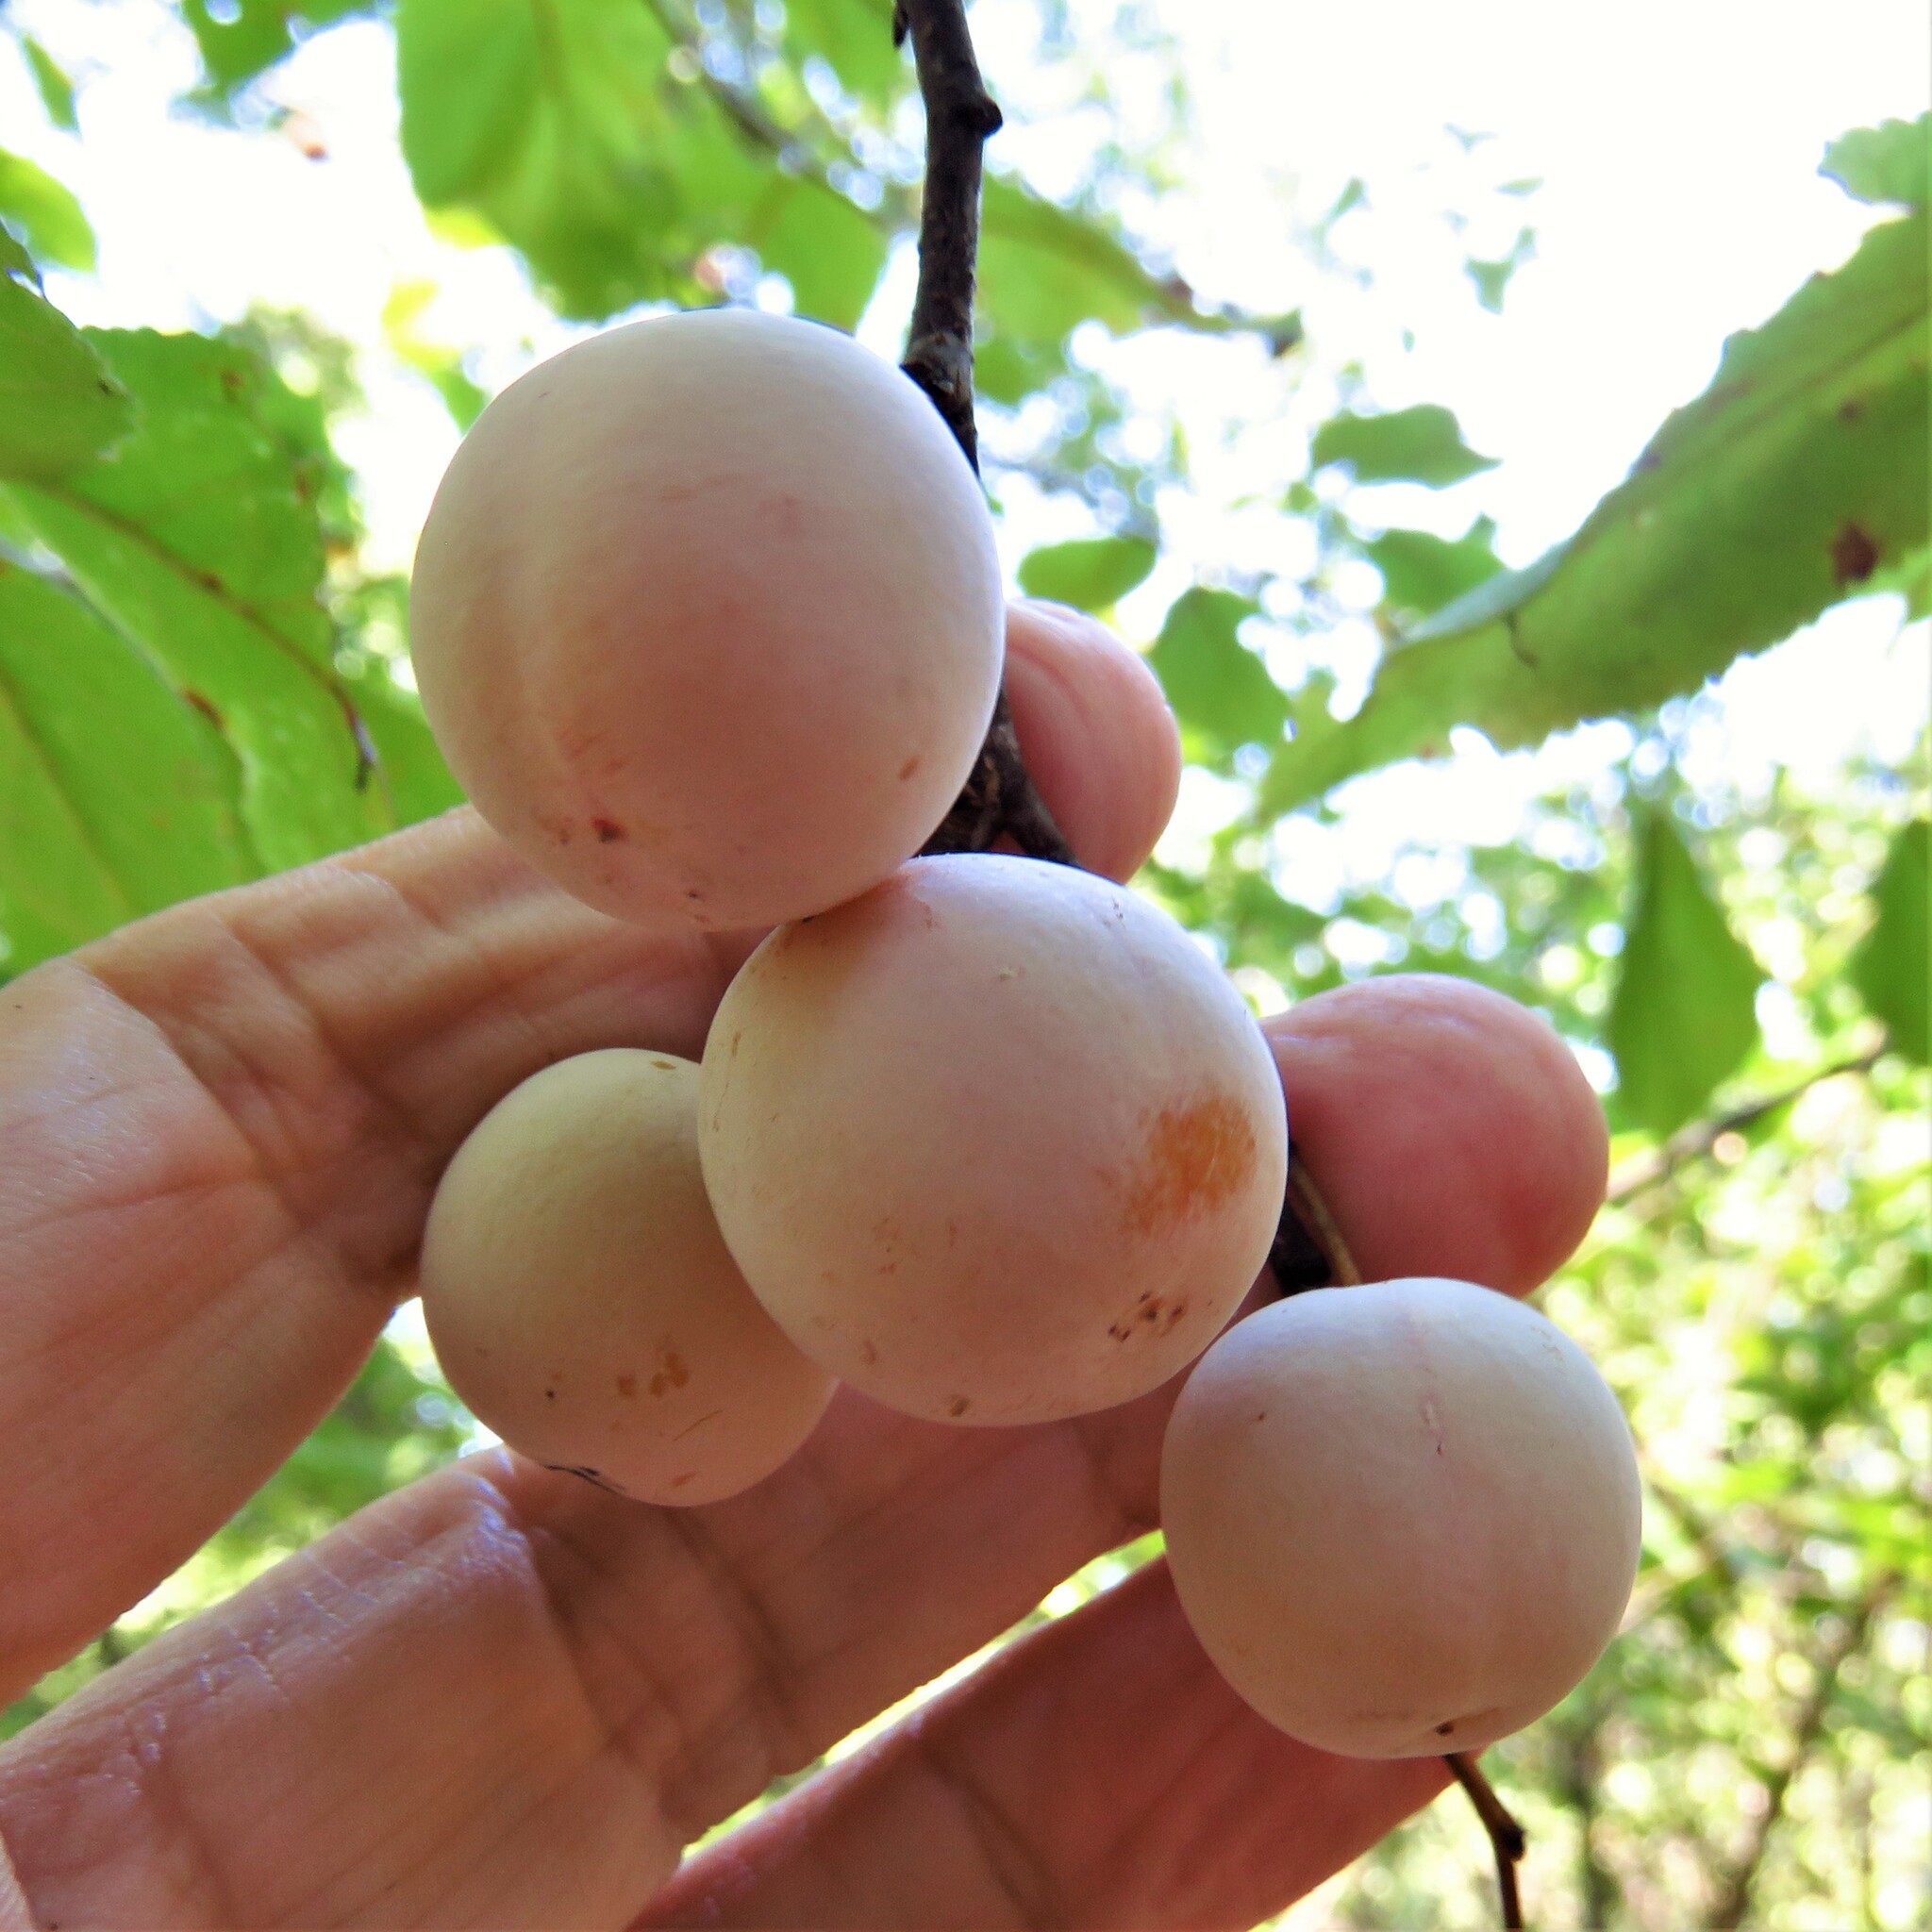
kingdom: Plantae
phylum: Tracheophyta
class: Magnoliopsida
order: Rosales
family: Rosaceae
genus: Prunus
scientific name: Prunus mexicana
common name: Mexican plum
